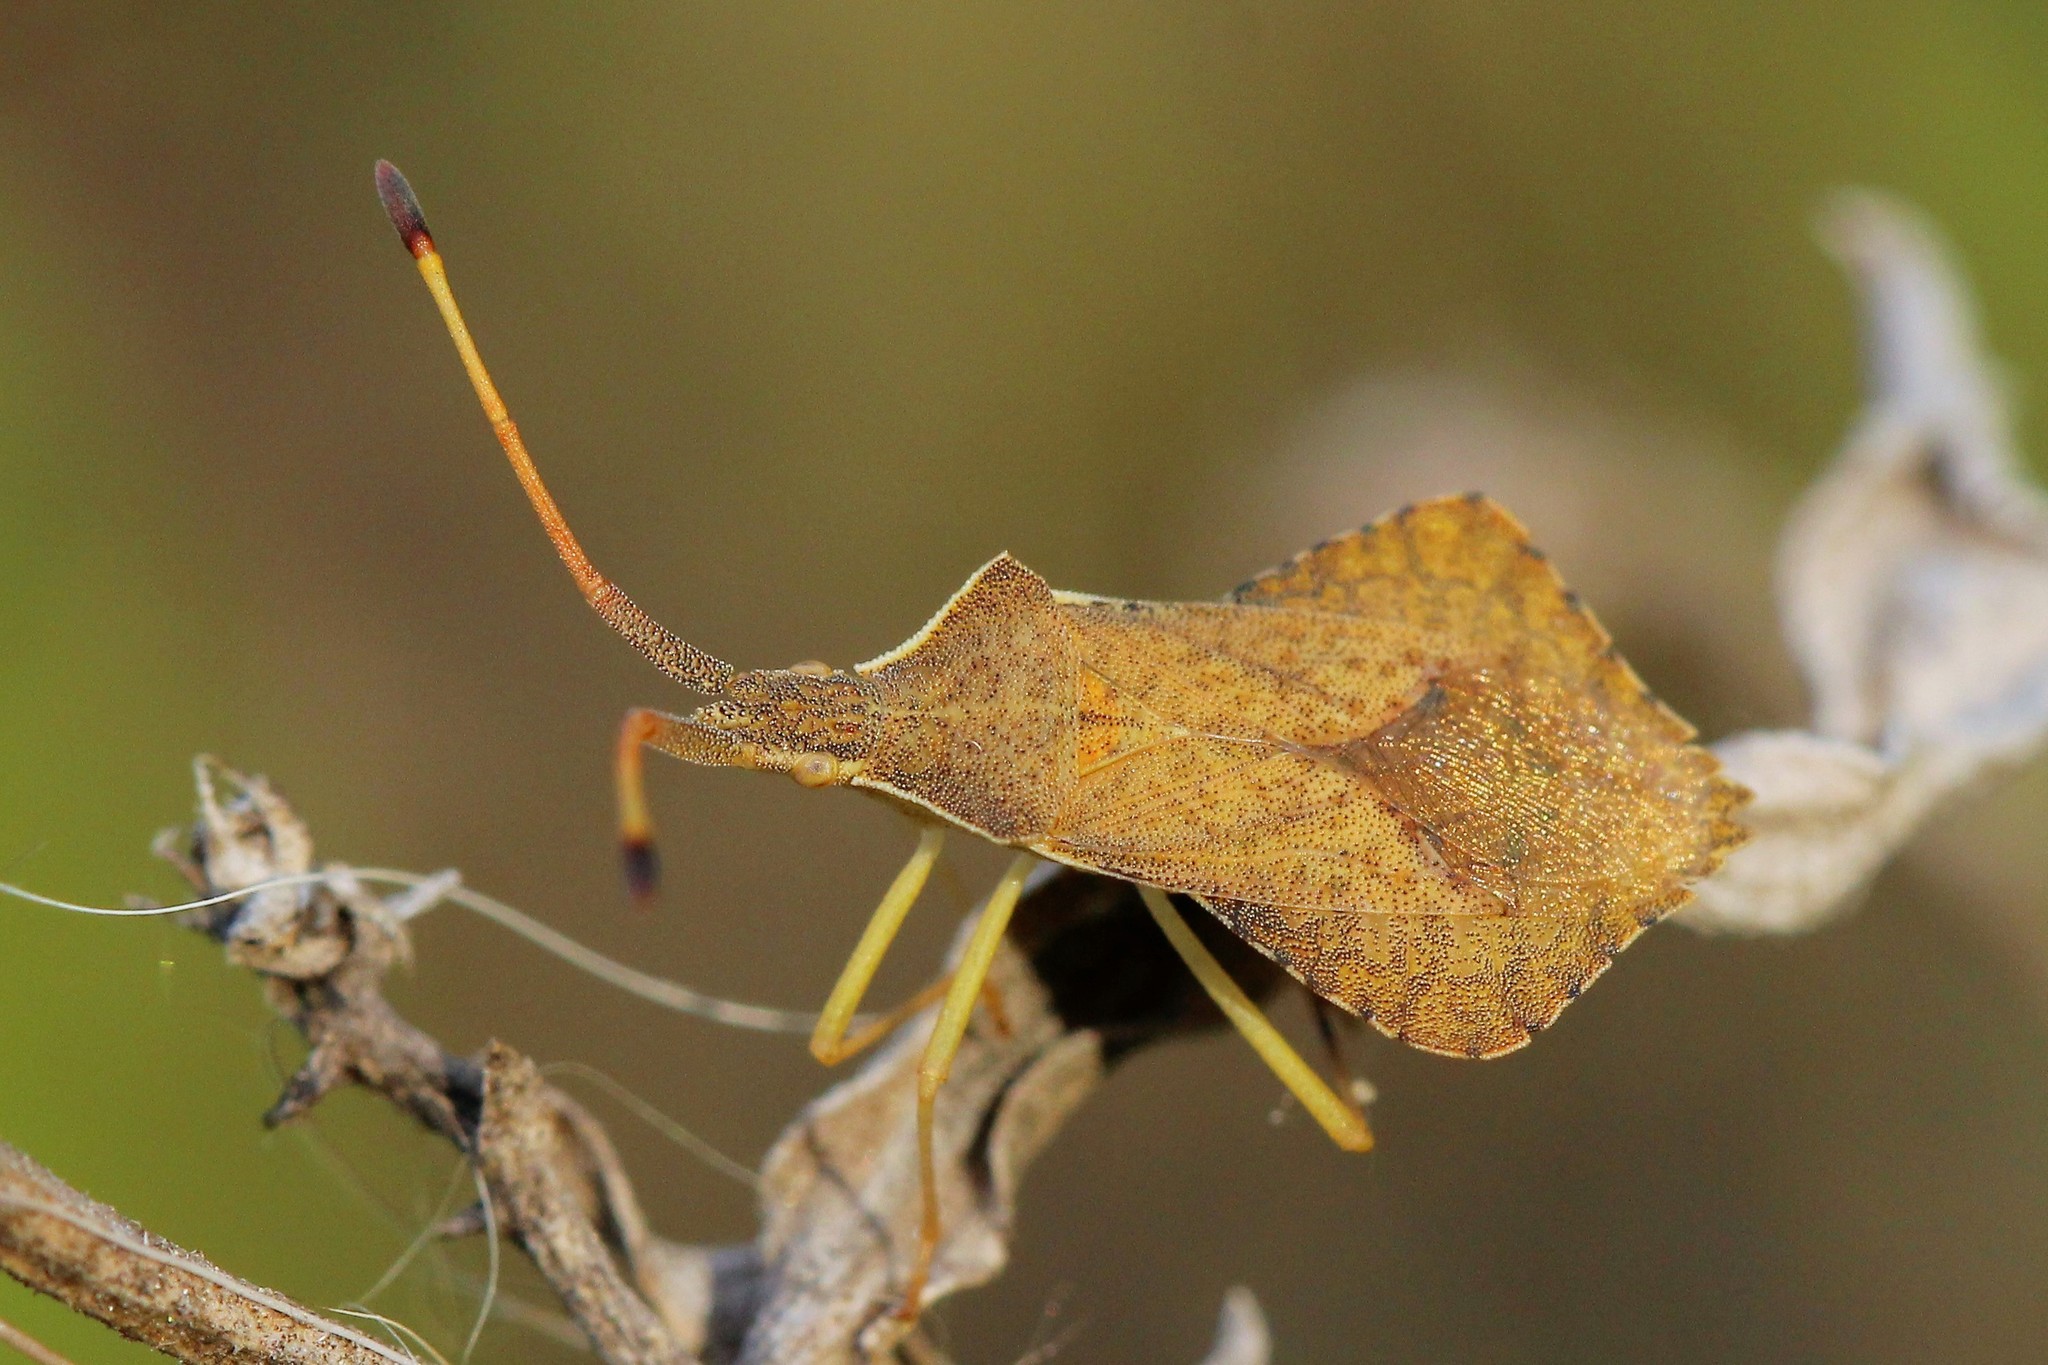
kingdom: Animalia
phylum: Arthropoda
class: Insecta
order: Hemiptera
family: Coreidae
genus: Syromastus
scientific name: Syromastus rhombeus
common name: Rhombic leatherbug
